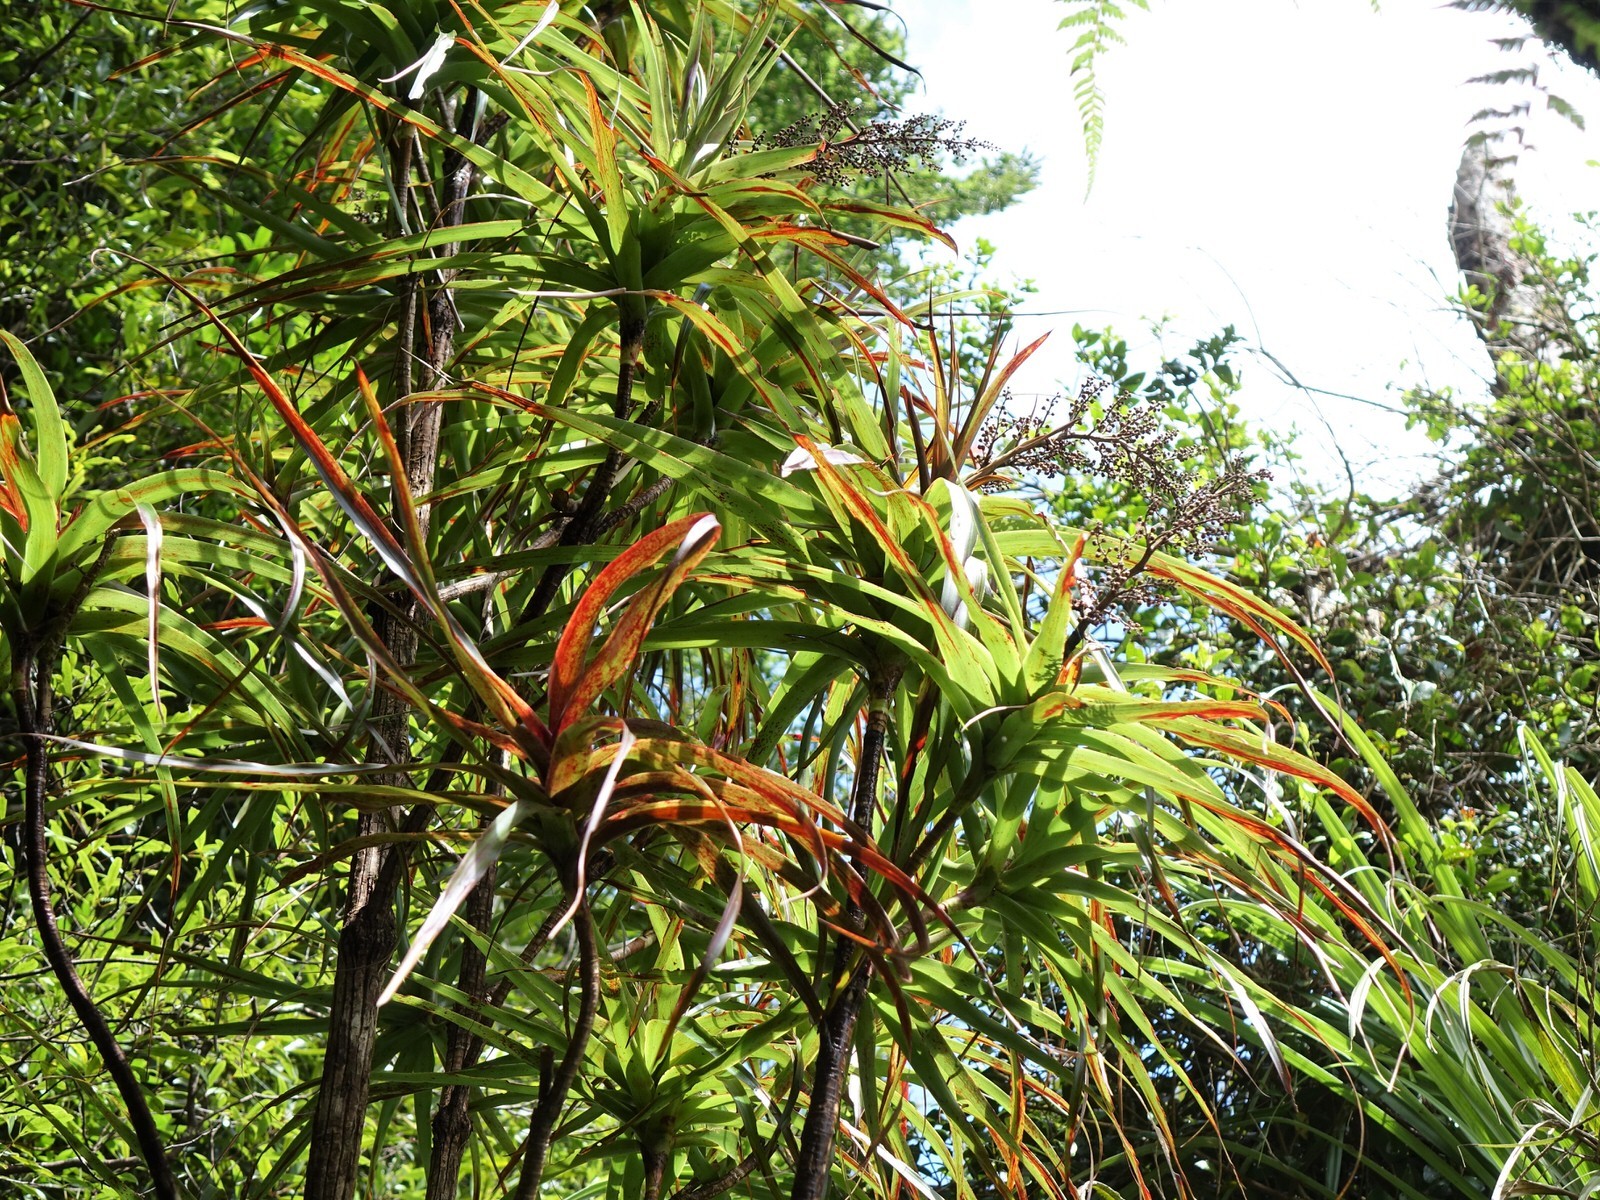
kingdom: Plantae
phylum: Tracheophyta
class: Magnoliopsida
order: Ericales
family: Ericaceae
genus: Dracophyllum
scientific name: Dracophyllum latifolium
